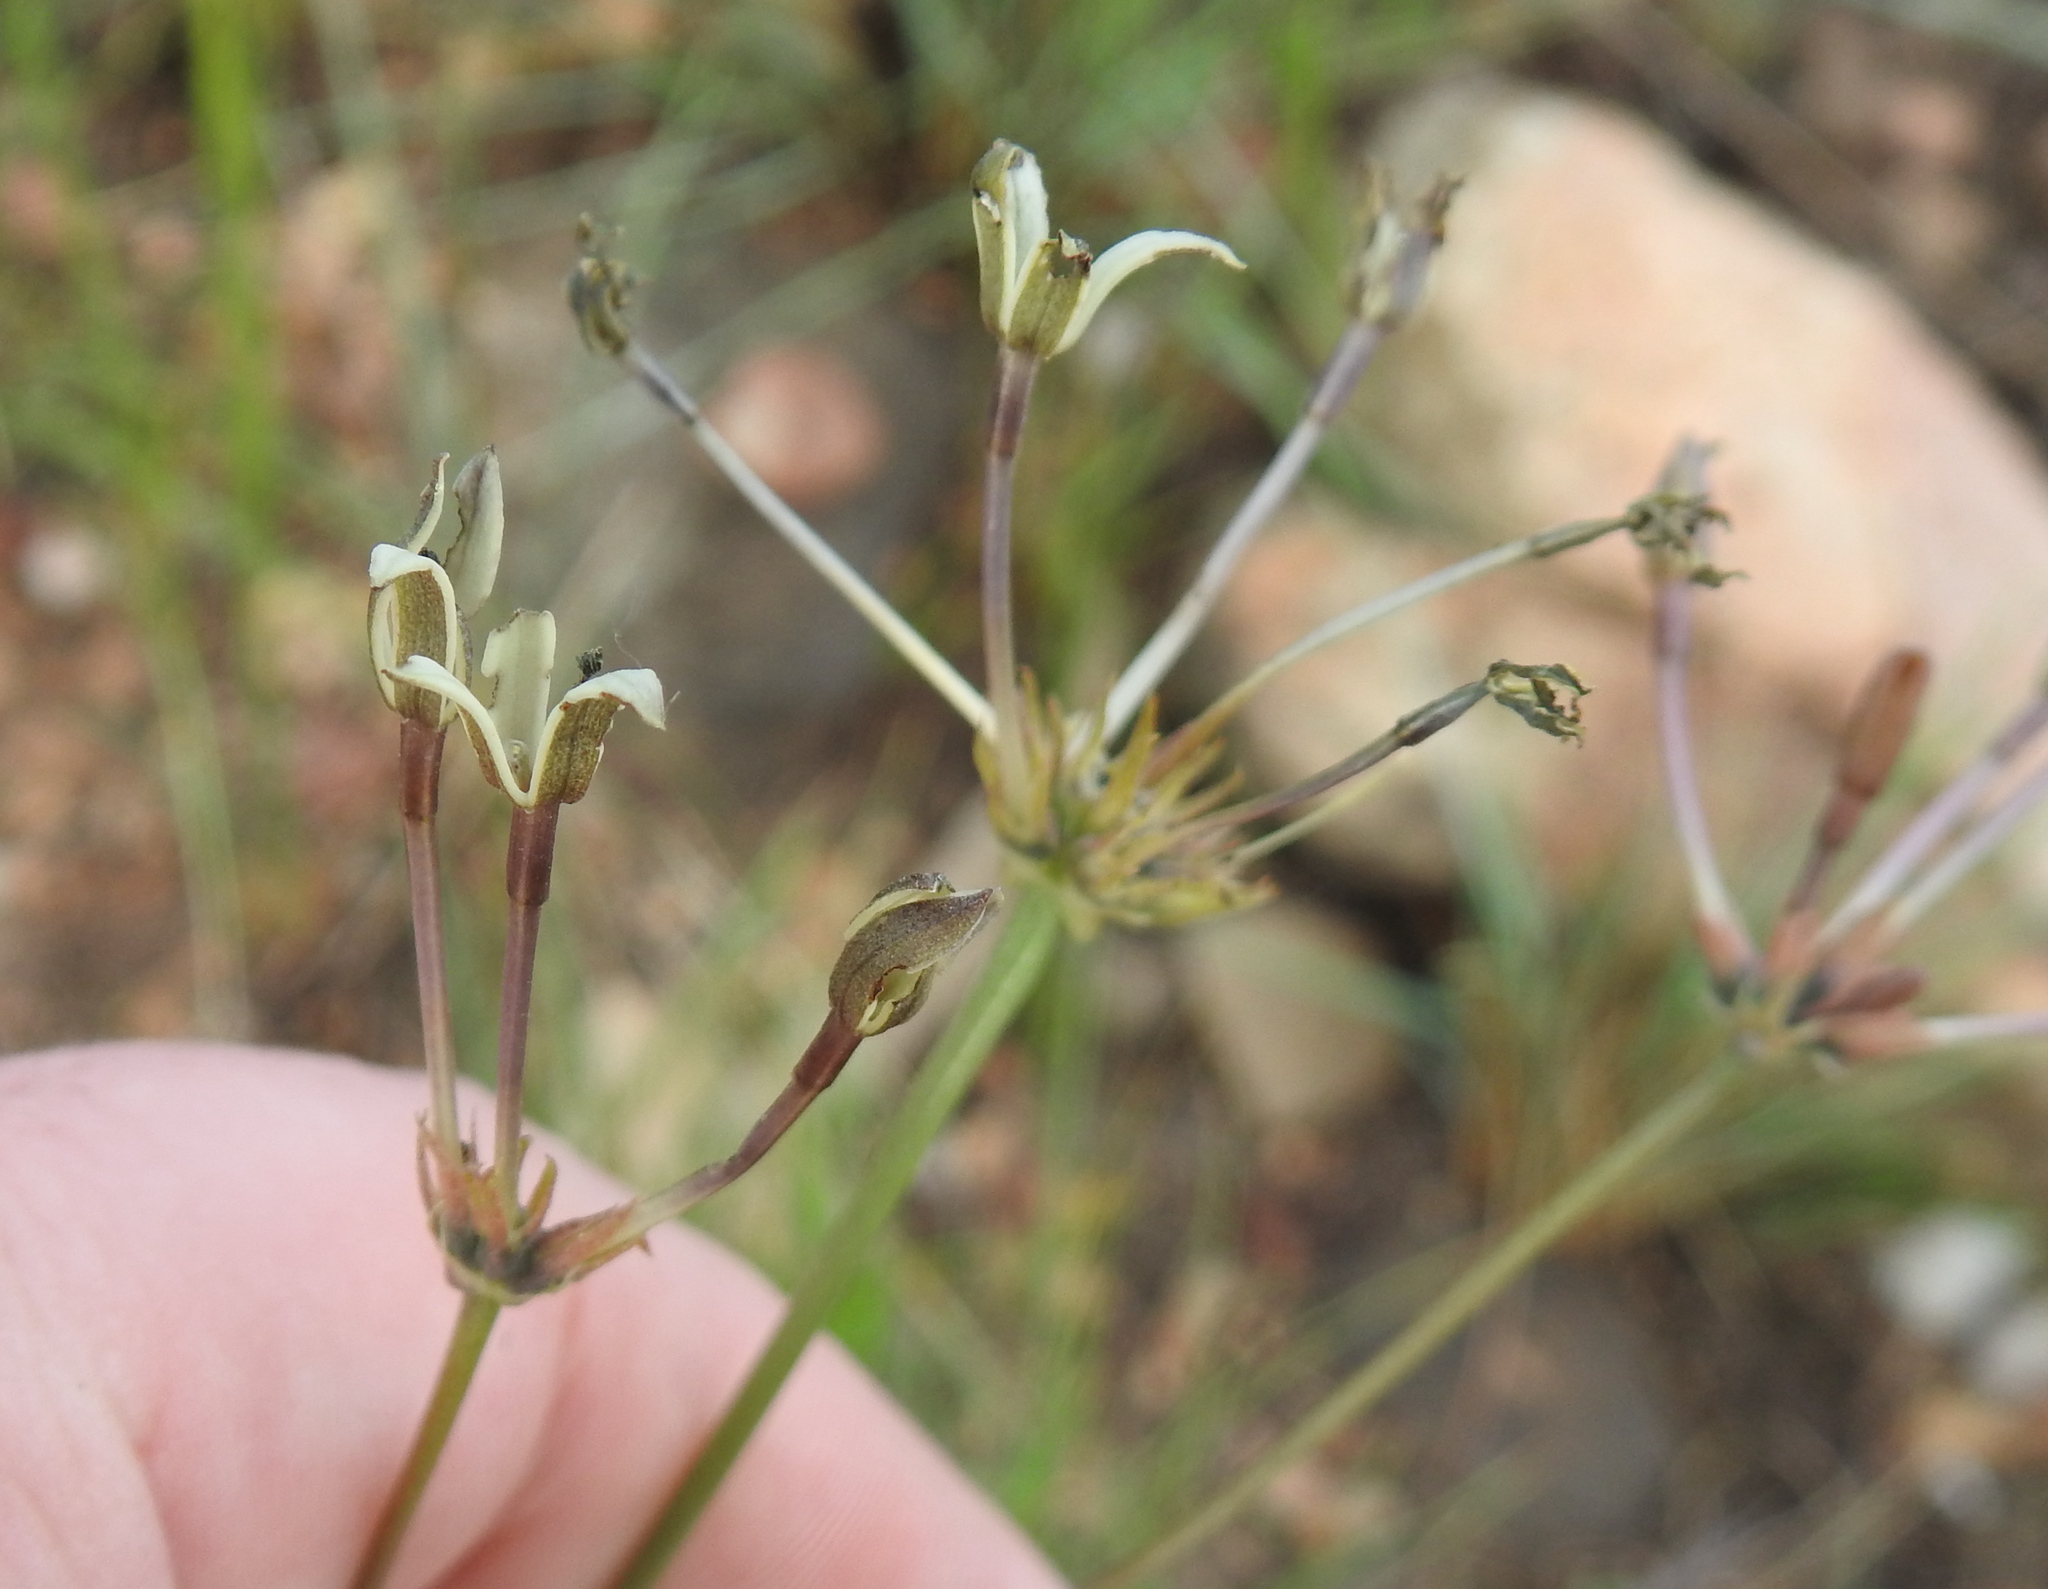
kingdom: Plantae
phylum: Tracheophyta
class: Magnoliopsida
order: Gentianales
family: Rubiaceae
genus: Kohautia
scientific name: Kohautia amatymbica
